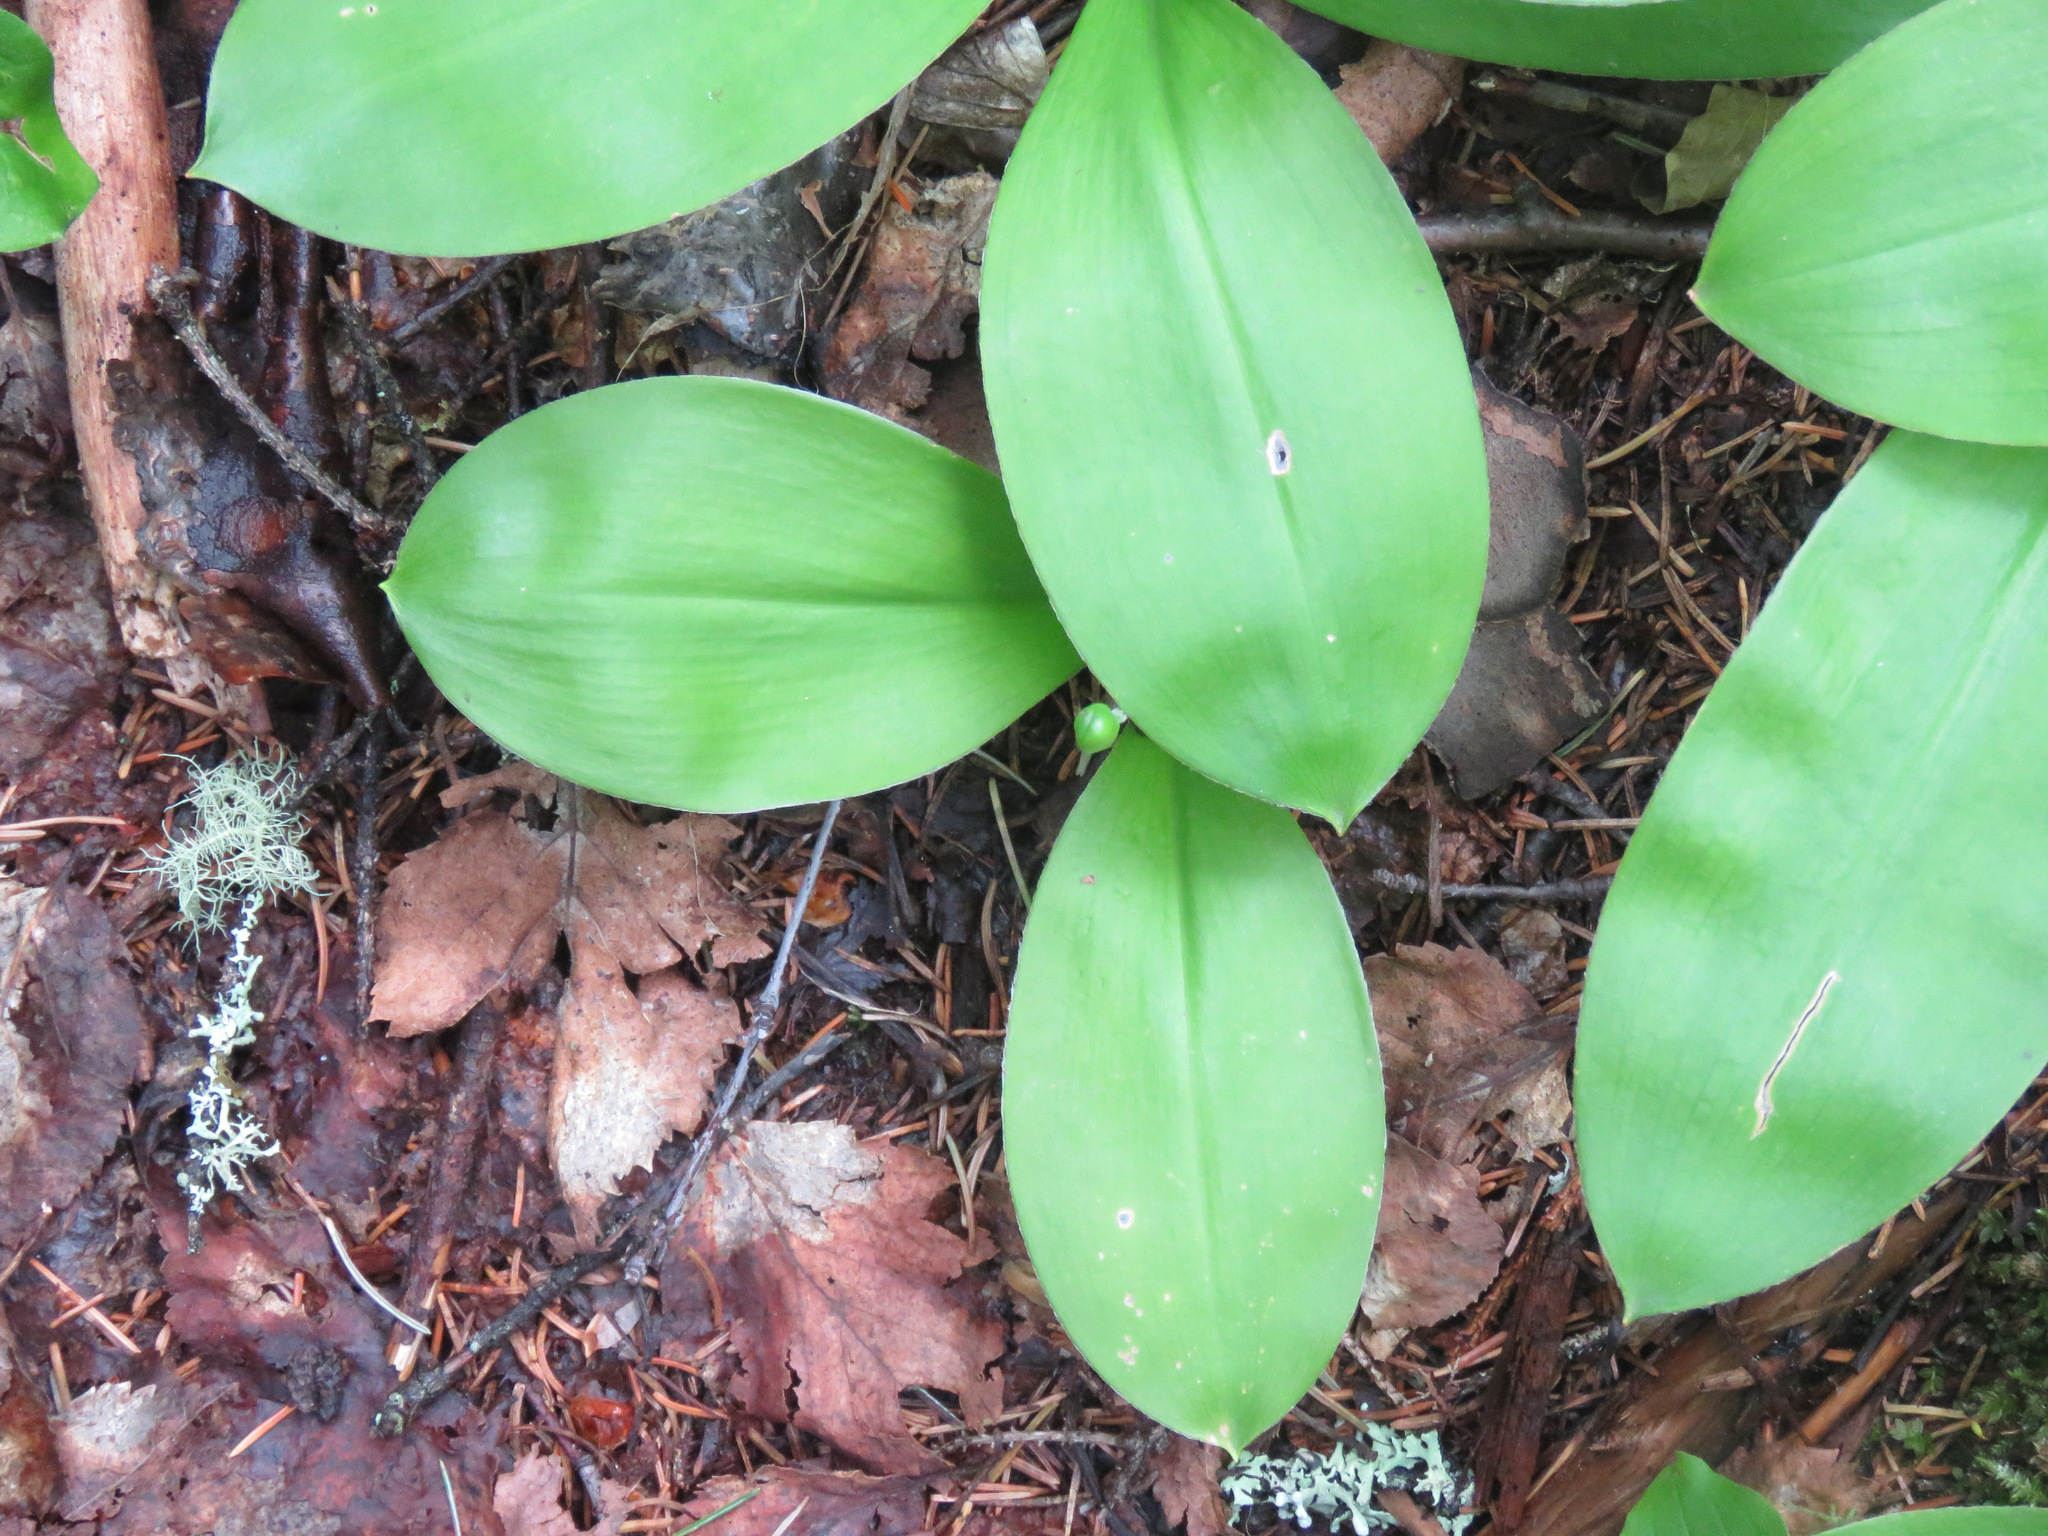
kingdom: Plantae
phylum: Tracheophyta
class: Liliopsida
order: Liliales
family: Liliaceae
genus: Clintonia
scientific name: Clintonia uniflora
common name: Queen's cup
